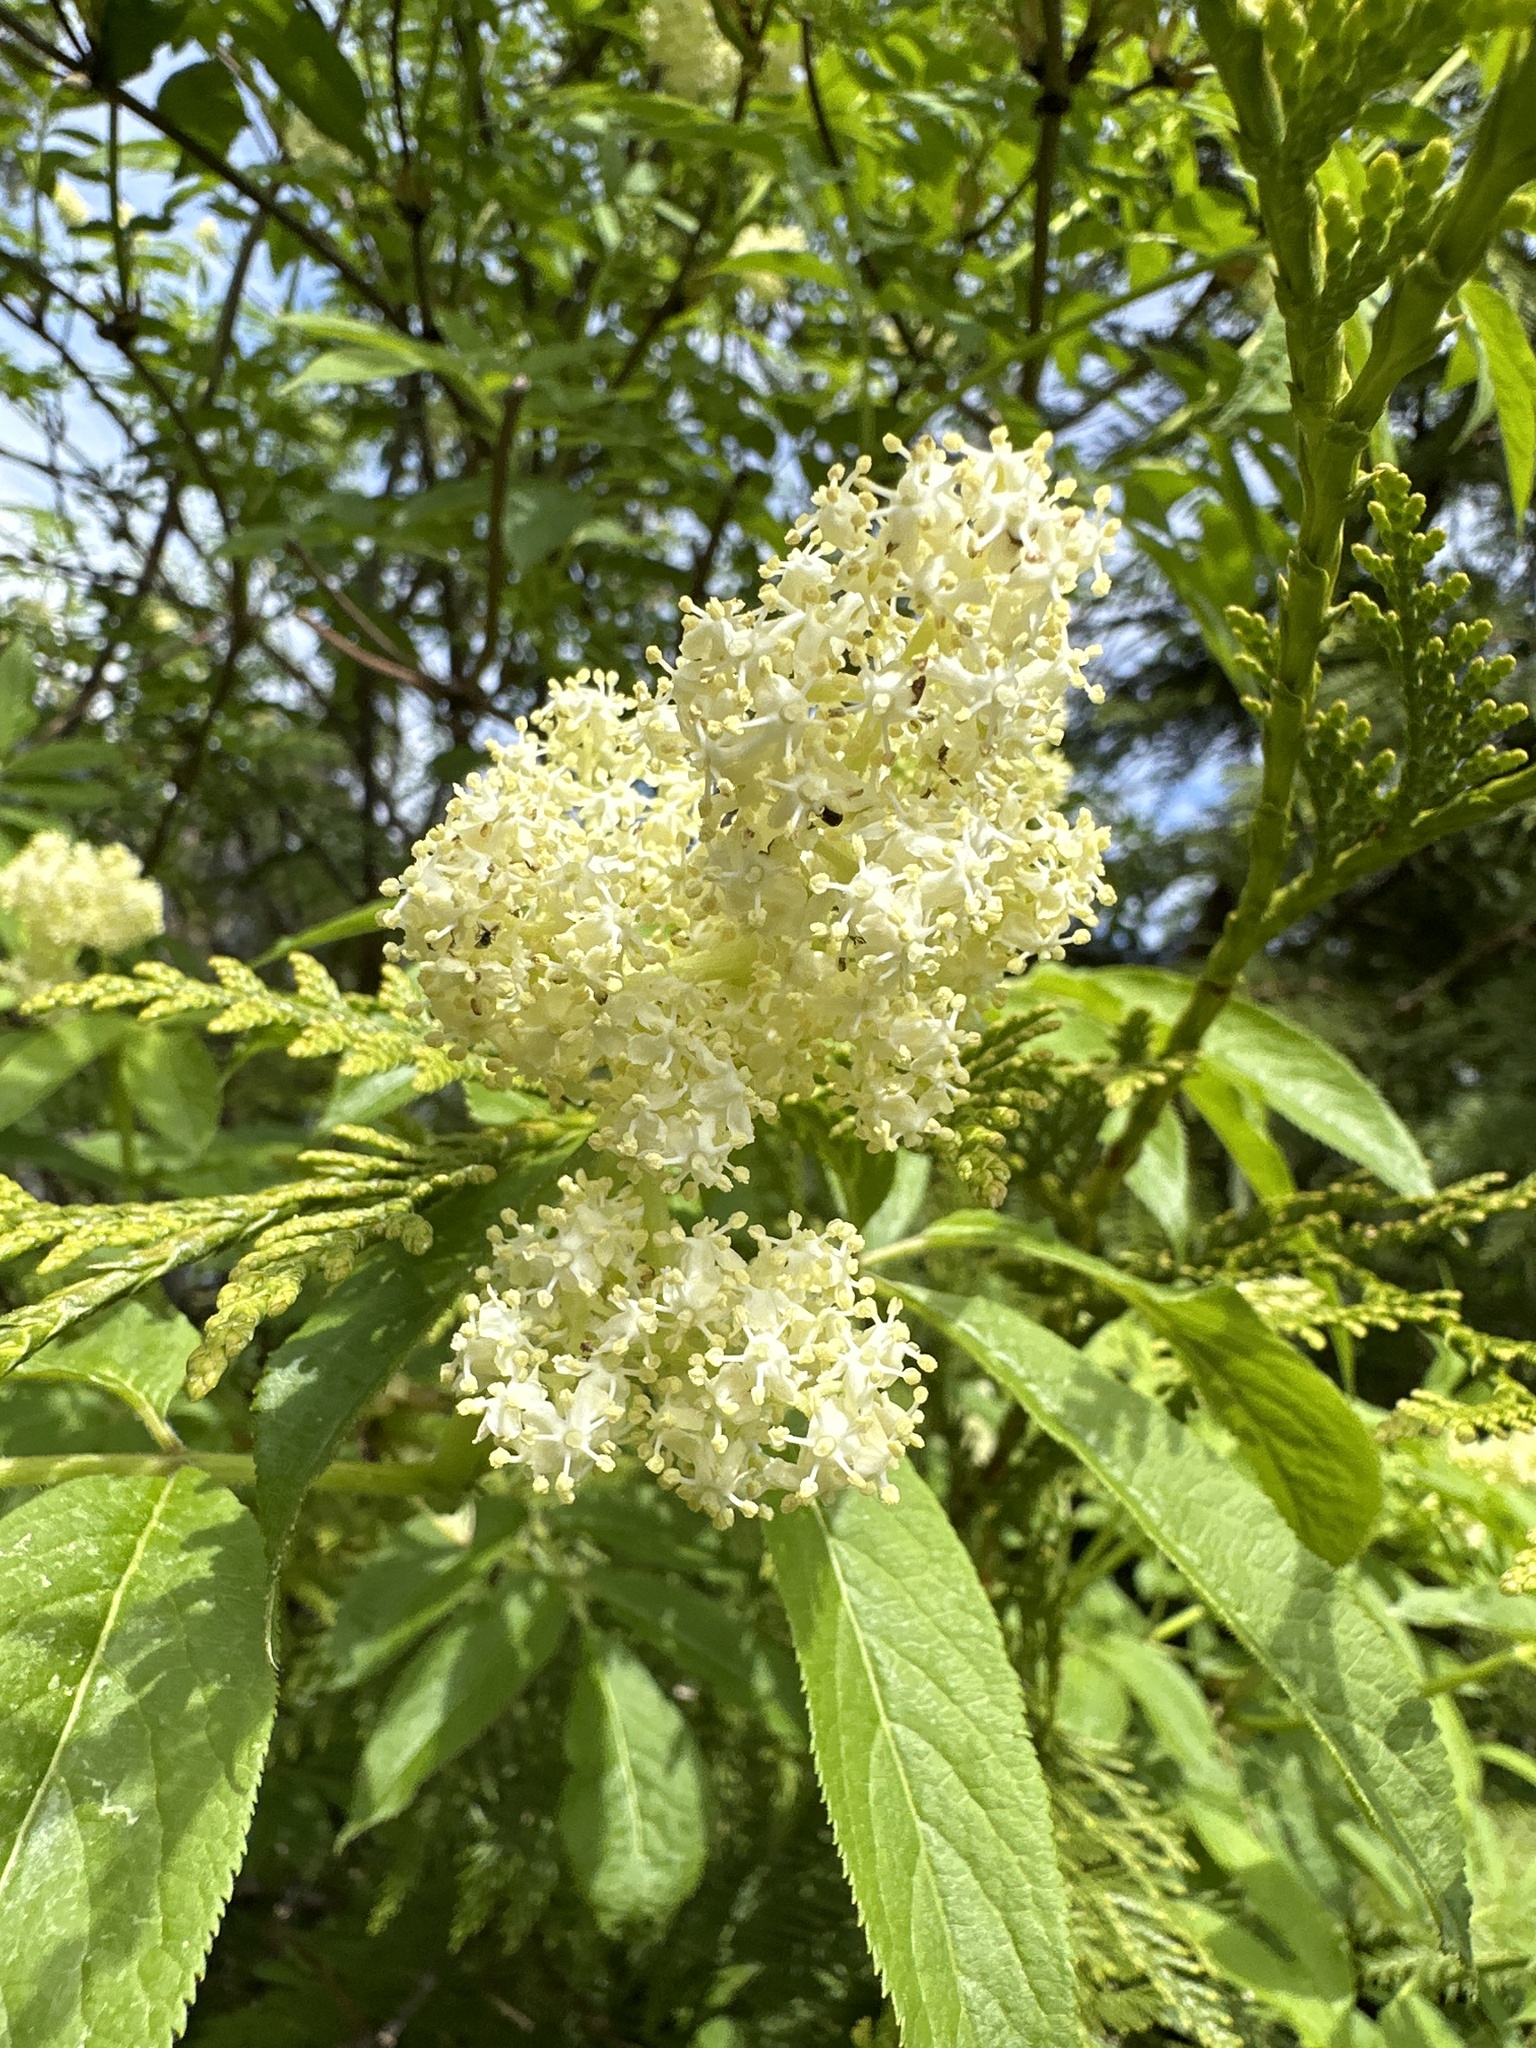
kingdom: Plantae
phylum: Tracheophyta
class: Magnoliopsida
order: Dipsacales
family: Viburnaceae
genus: Sambucus
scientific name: Sambucus racemosa
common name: Red-berried elder
